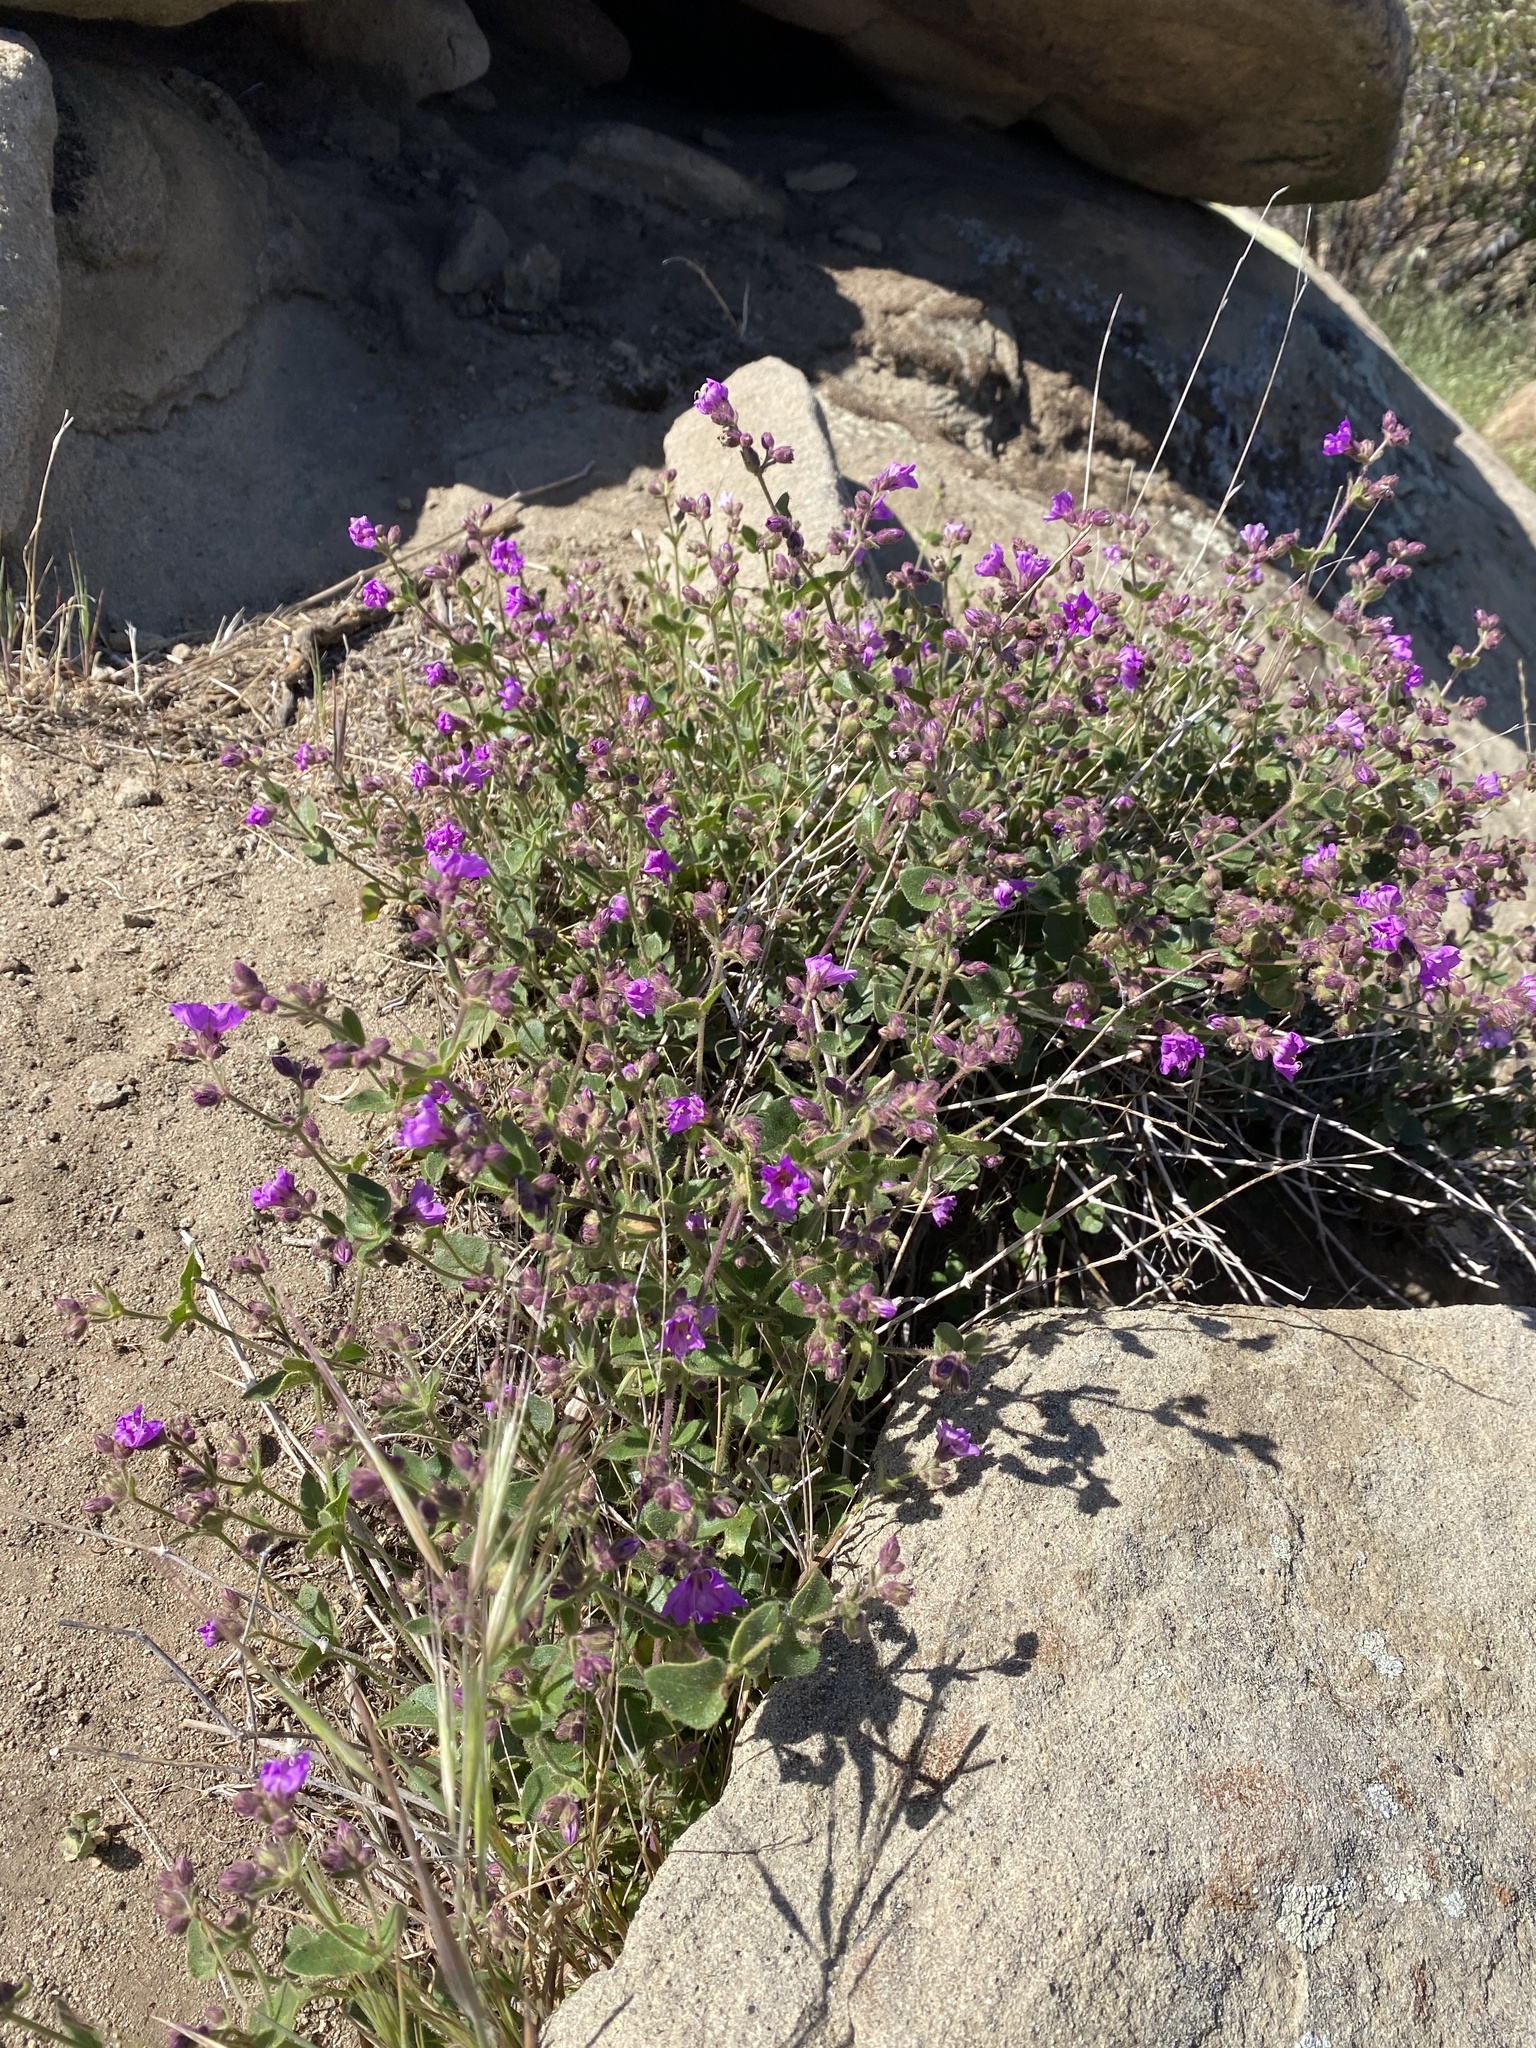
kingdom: Plantae
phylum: Tracheophyta
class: Magnoliopsida
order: Caryophyllales
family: Nyctaginaceae
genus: Mirabilis
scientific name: Mirabilis laevis
